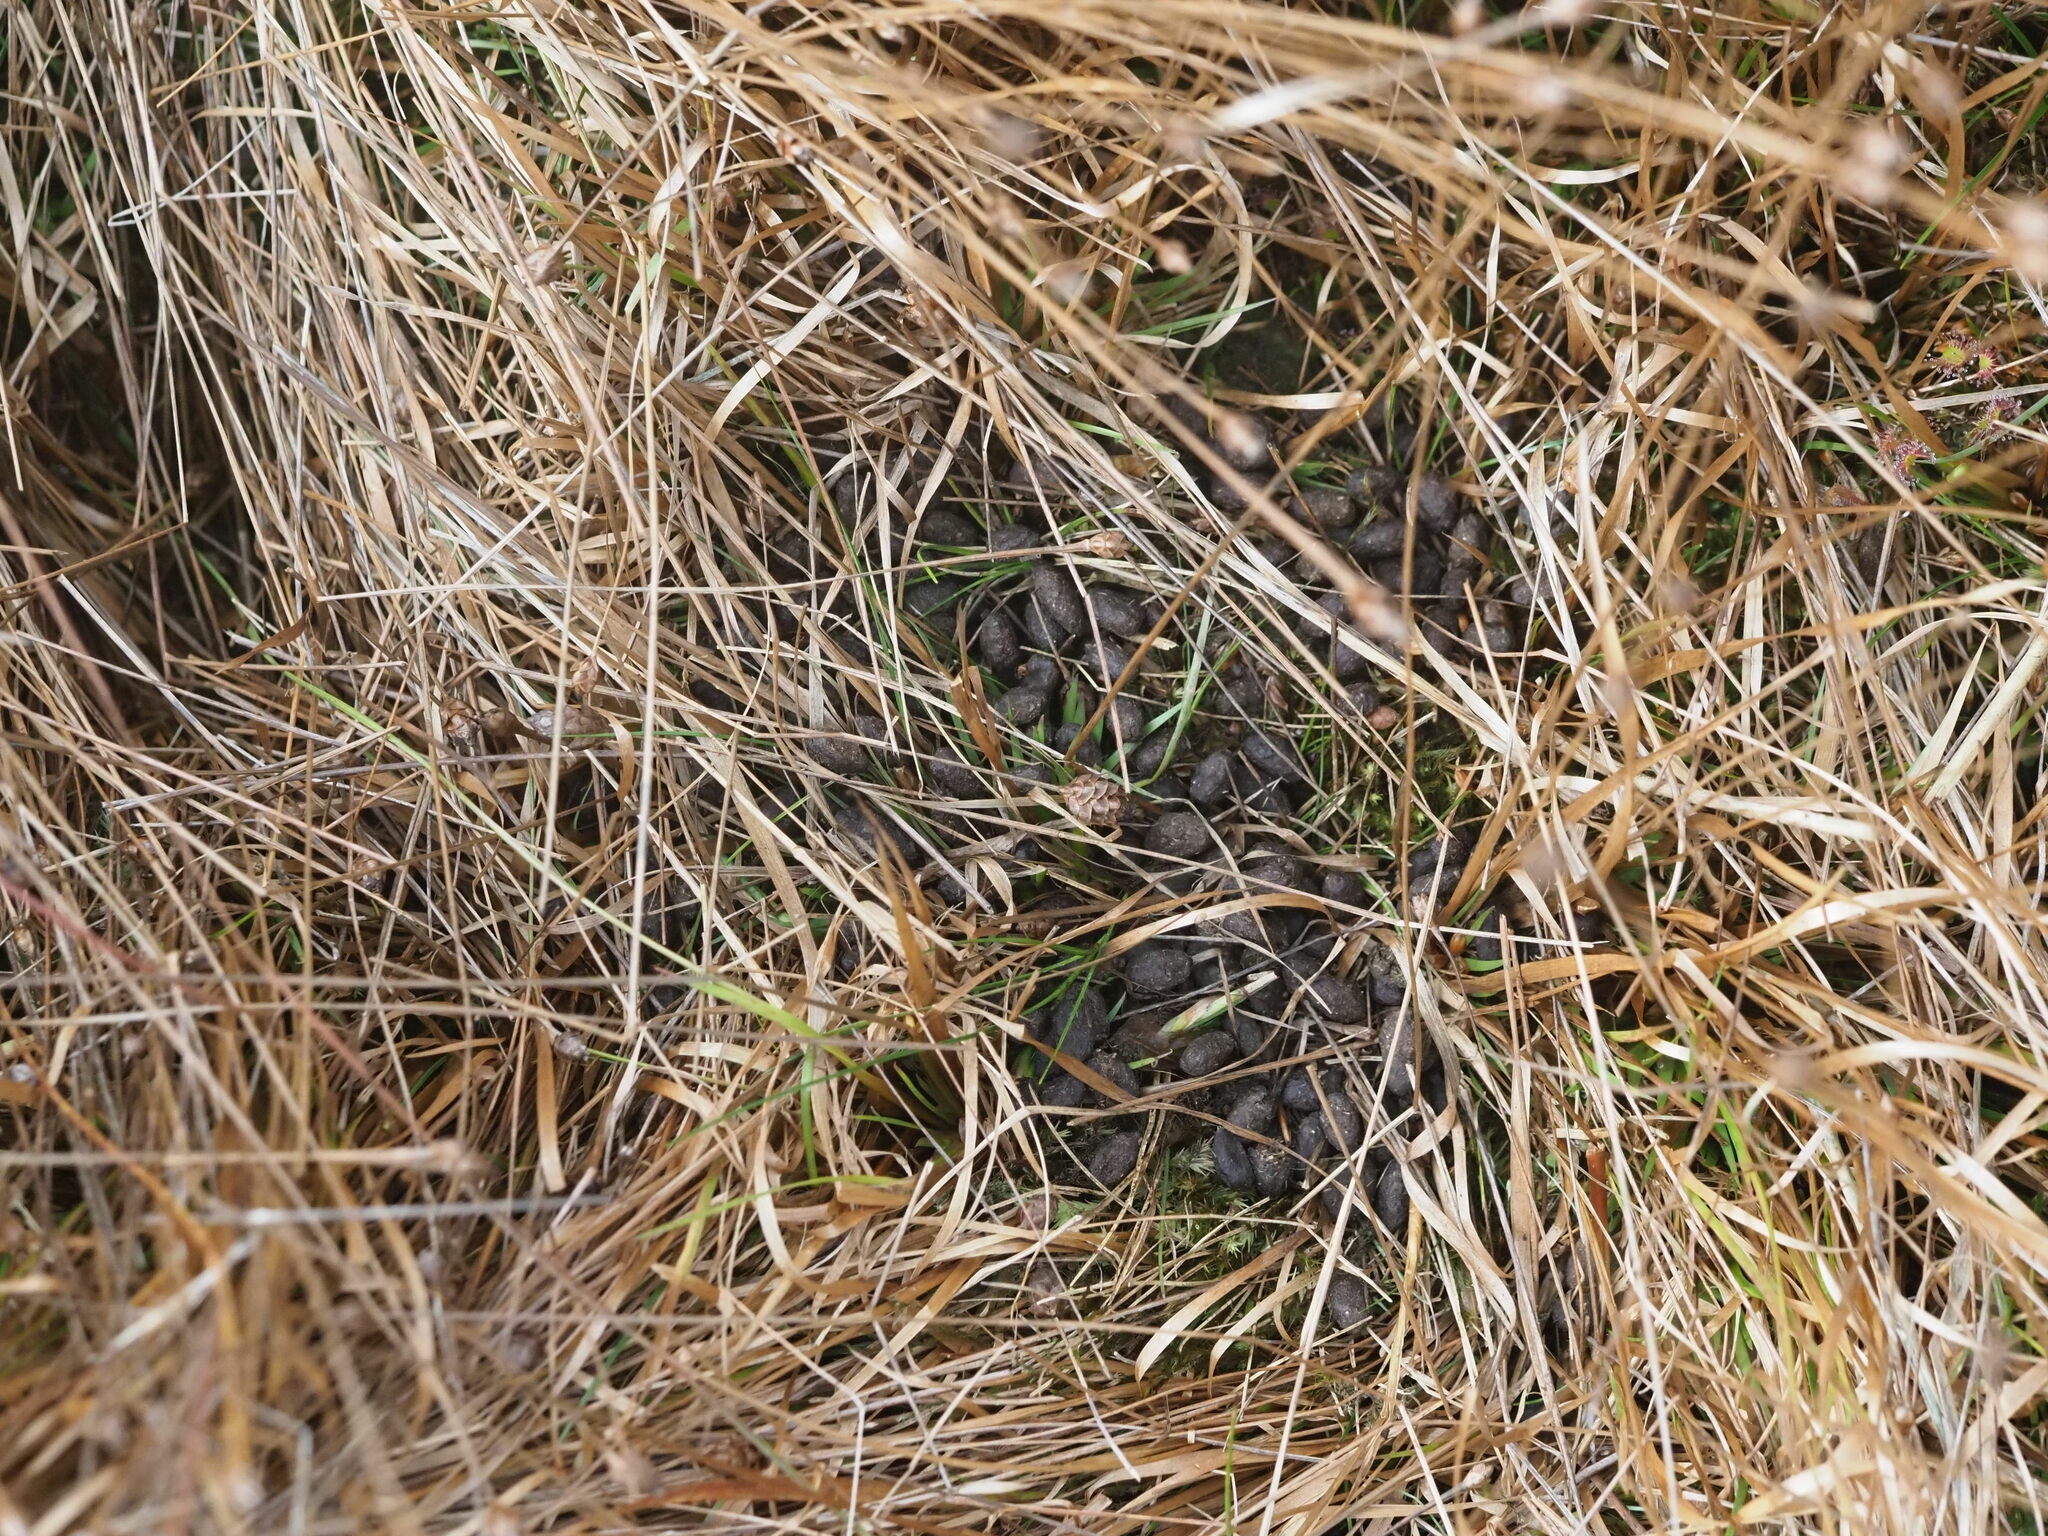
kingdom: Animalia
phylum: Chordata
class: Mammalia
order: Artiodactyla
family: Cervidae
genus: Odocoileus
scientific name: Odocoileus hemionus
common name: Mule deer
